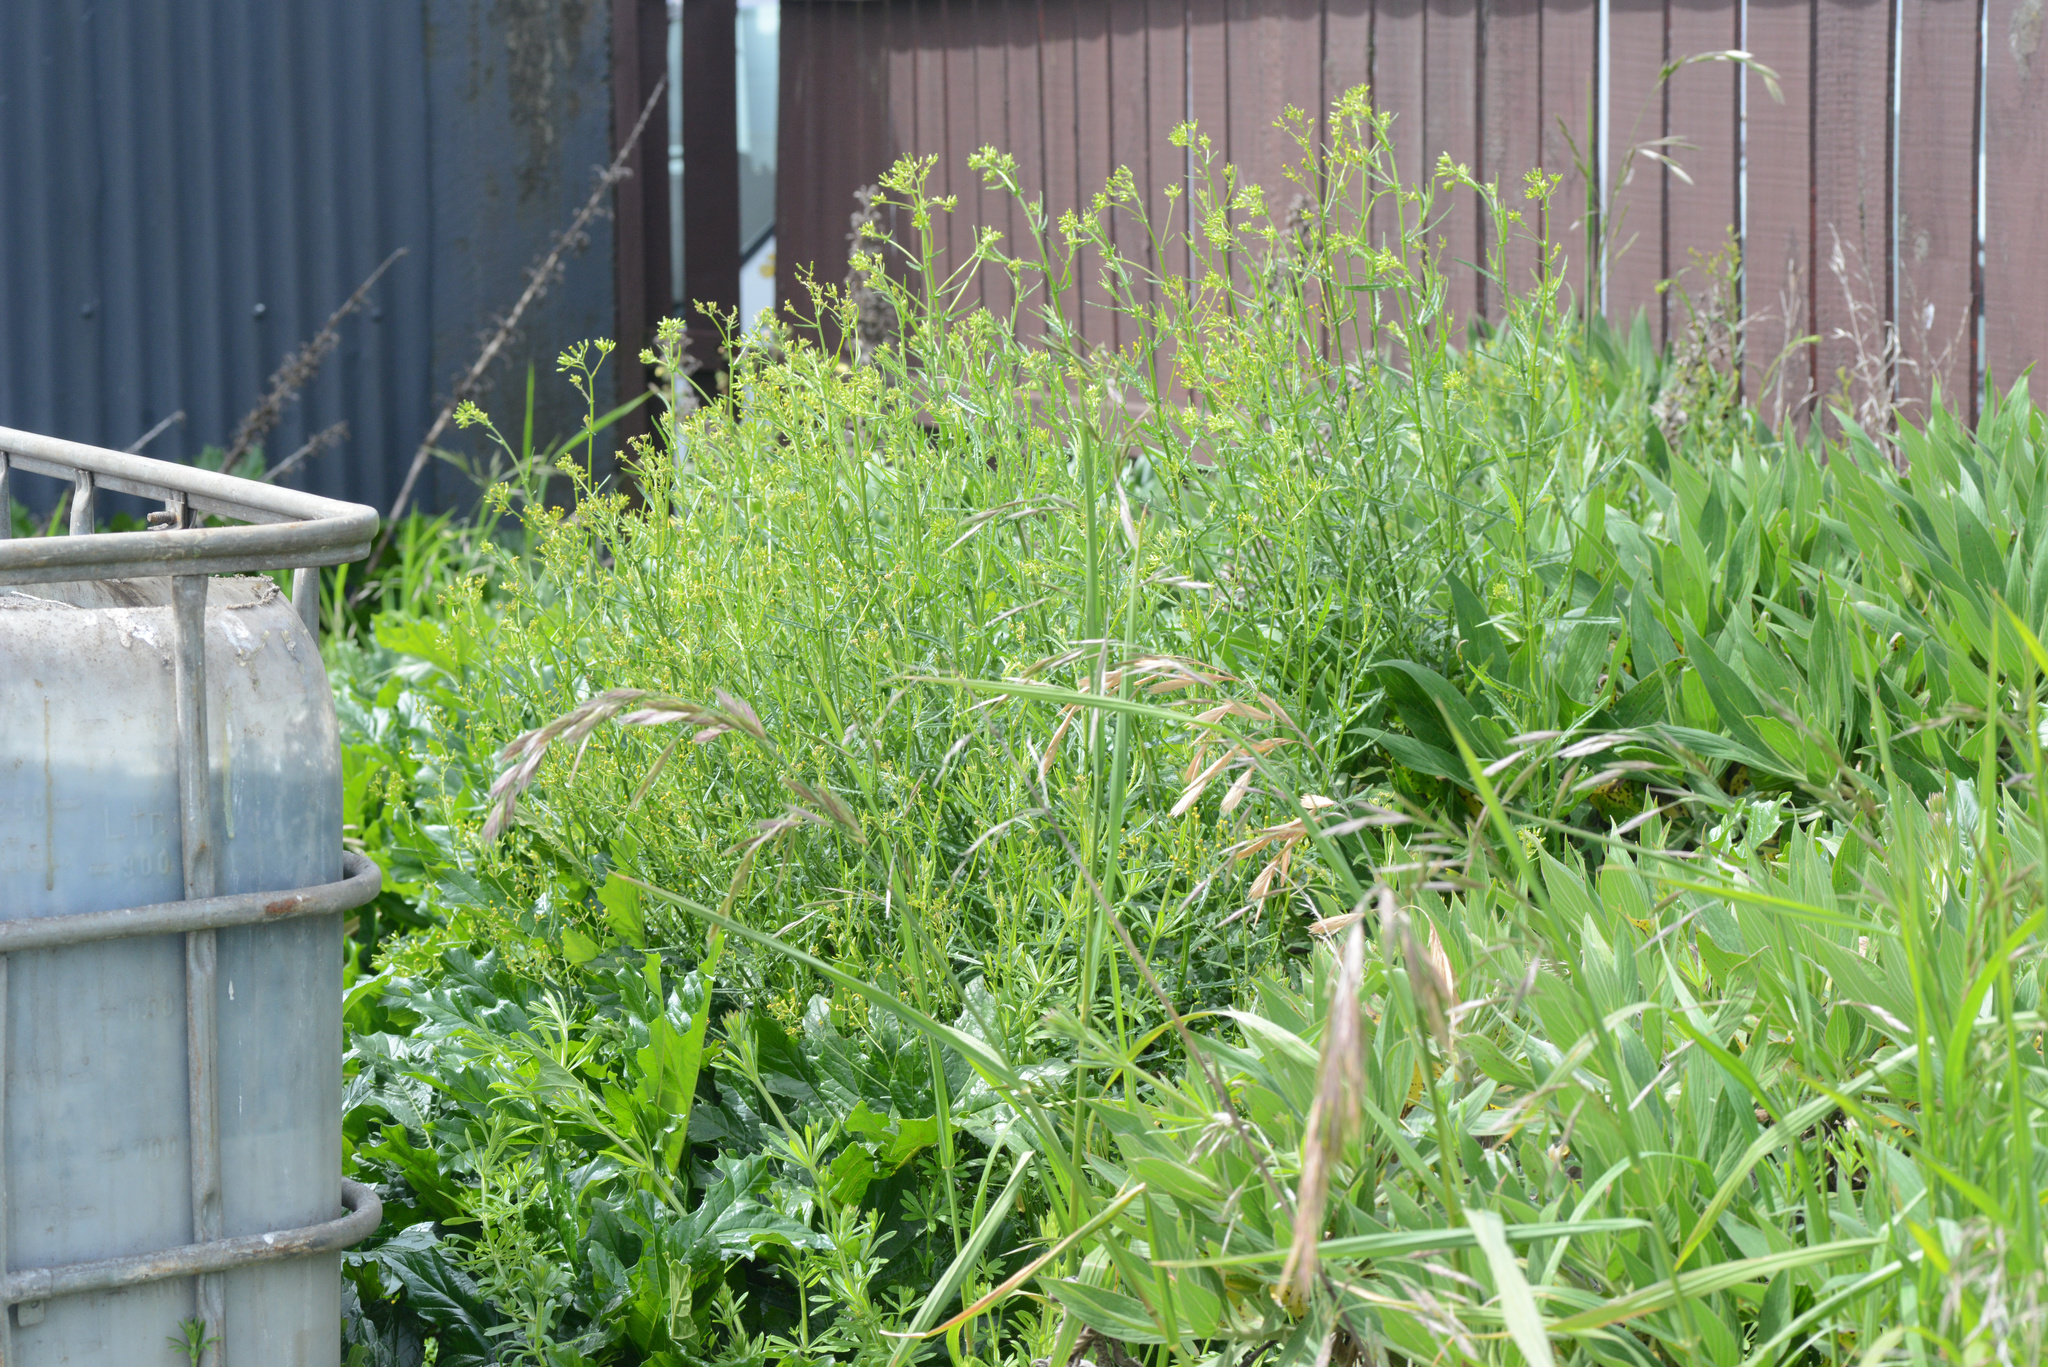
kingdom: Plantae
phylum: Tracheophyta
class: Magnoliopsida
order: Asterales
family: Asteraceae
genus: Senecio
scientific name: Senecio hispidulus
